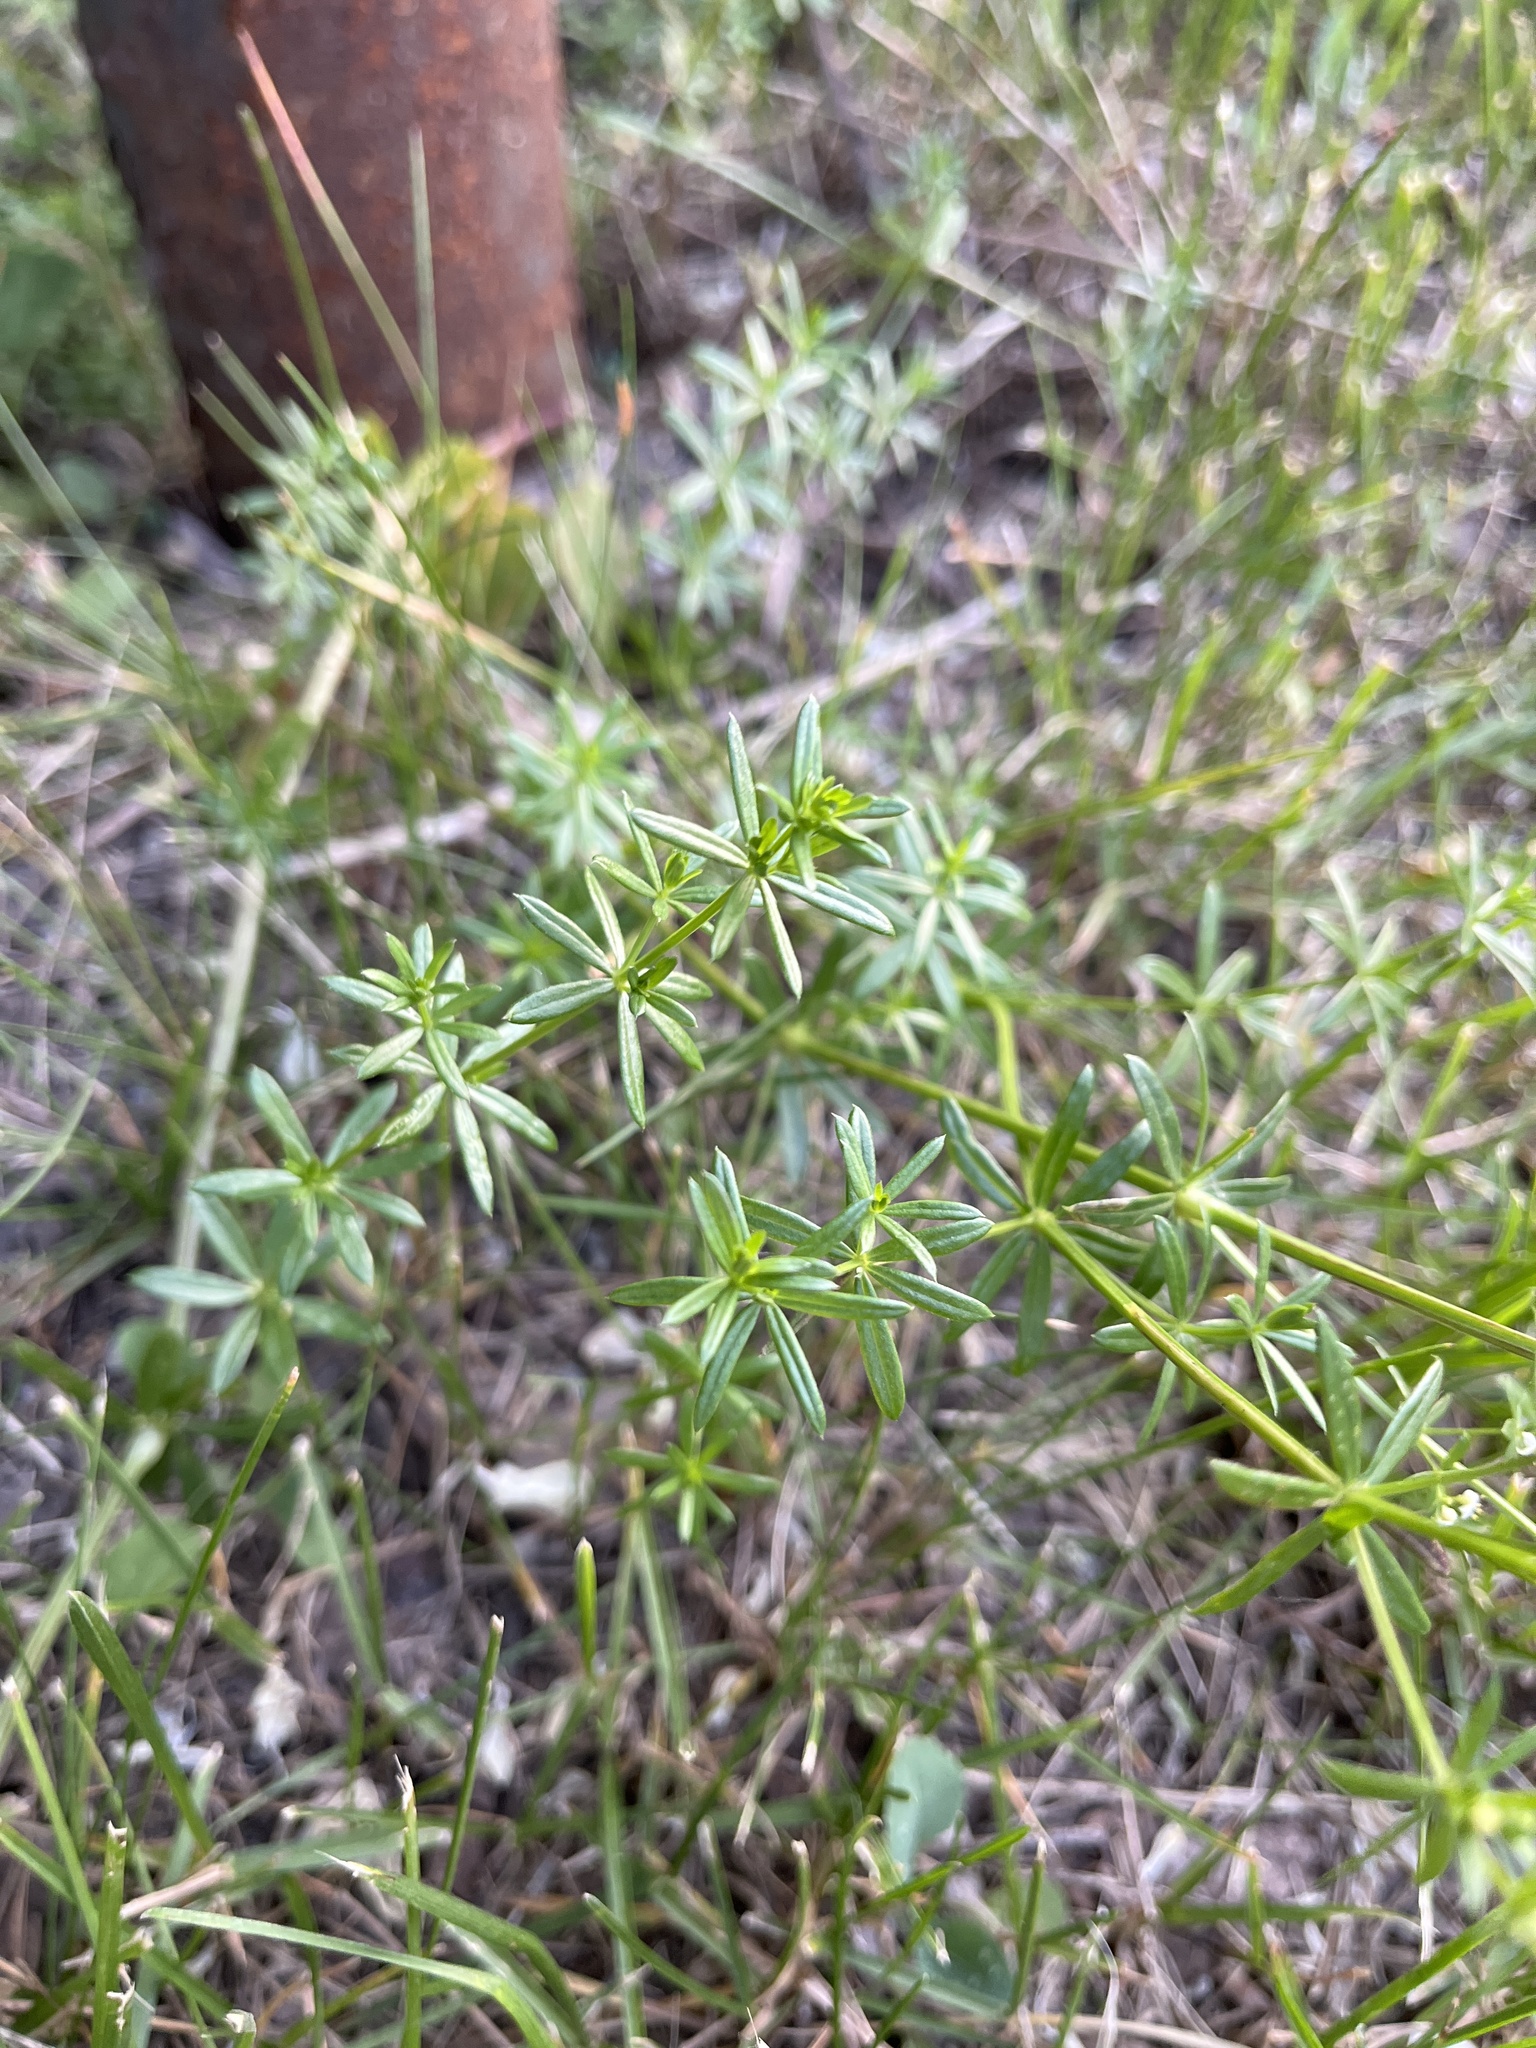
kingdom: Plantae
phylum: Tracheophyta
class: Magnoliopsida
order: Gentianales
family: Rubiaceae
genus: Galium
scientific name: Galium mollugo
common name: Hedge bedstraw
